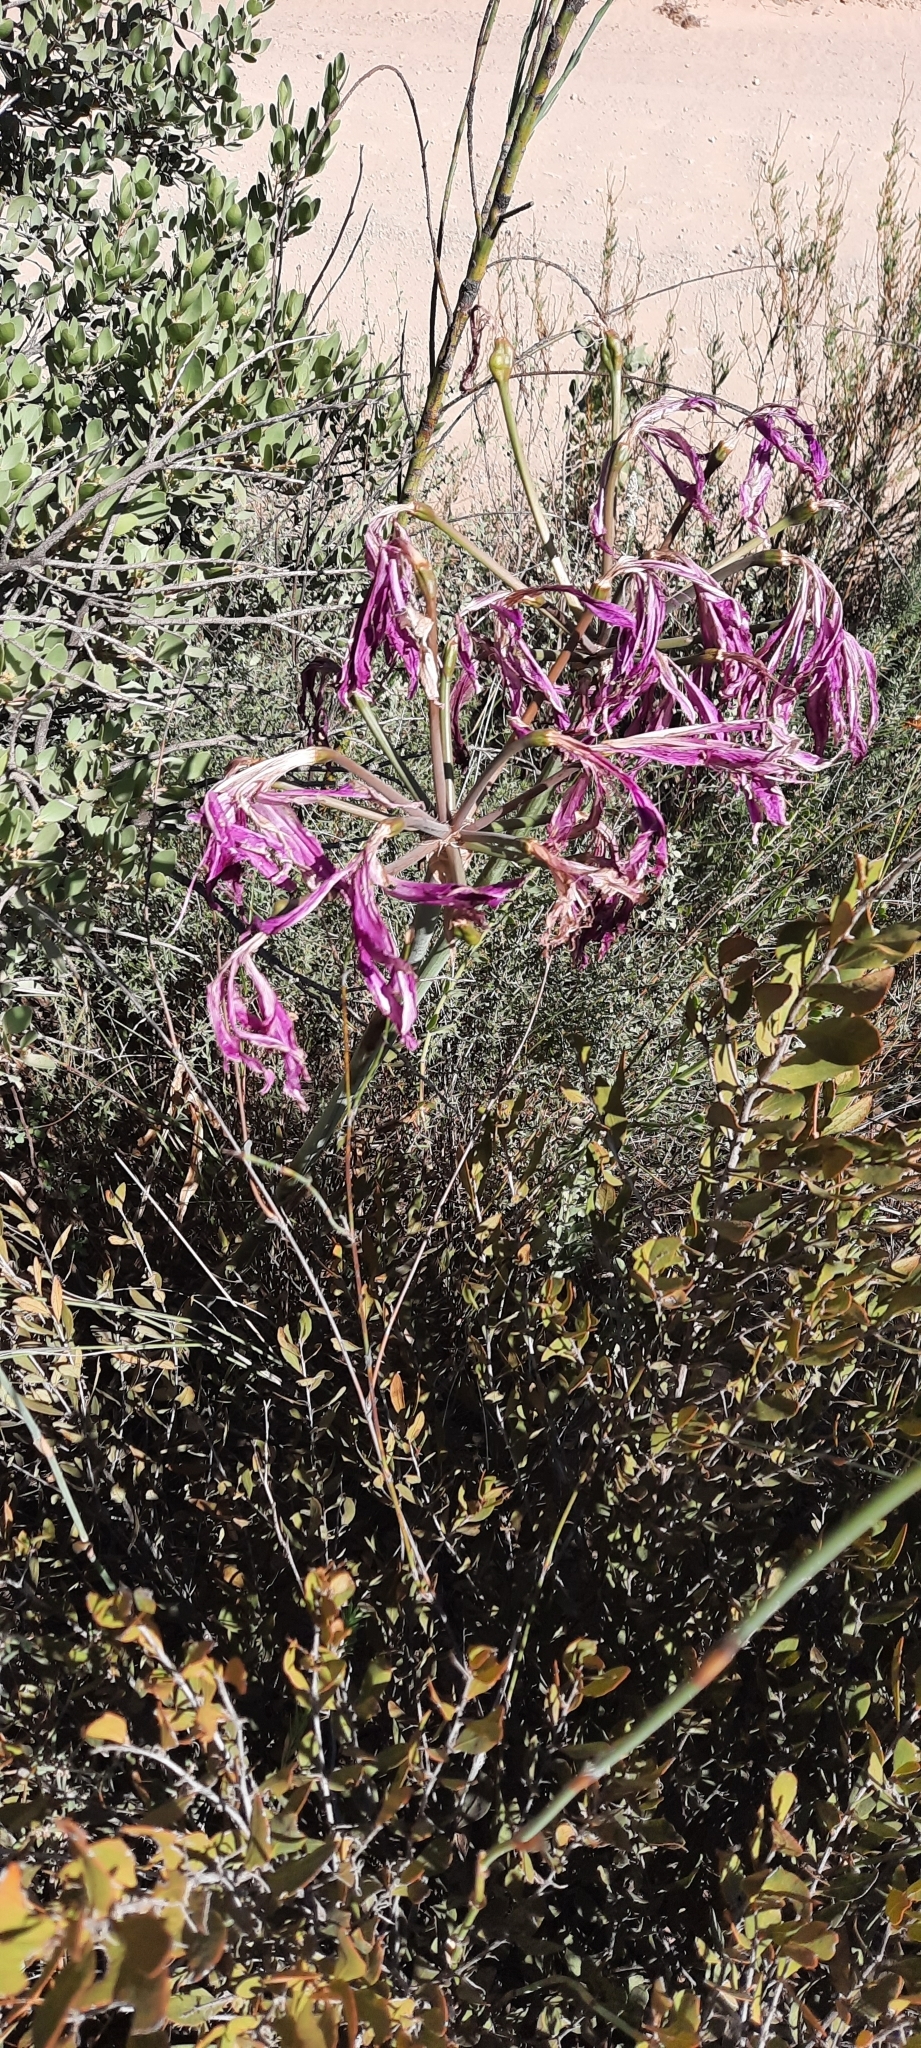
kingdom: Plantae
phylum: Tracheophyta
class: Liliopsida
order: Asparagales
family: Amaryllidaceae
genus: Amaryllis
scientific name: Amaryllis belladonna
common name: Jersey lily
